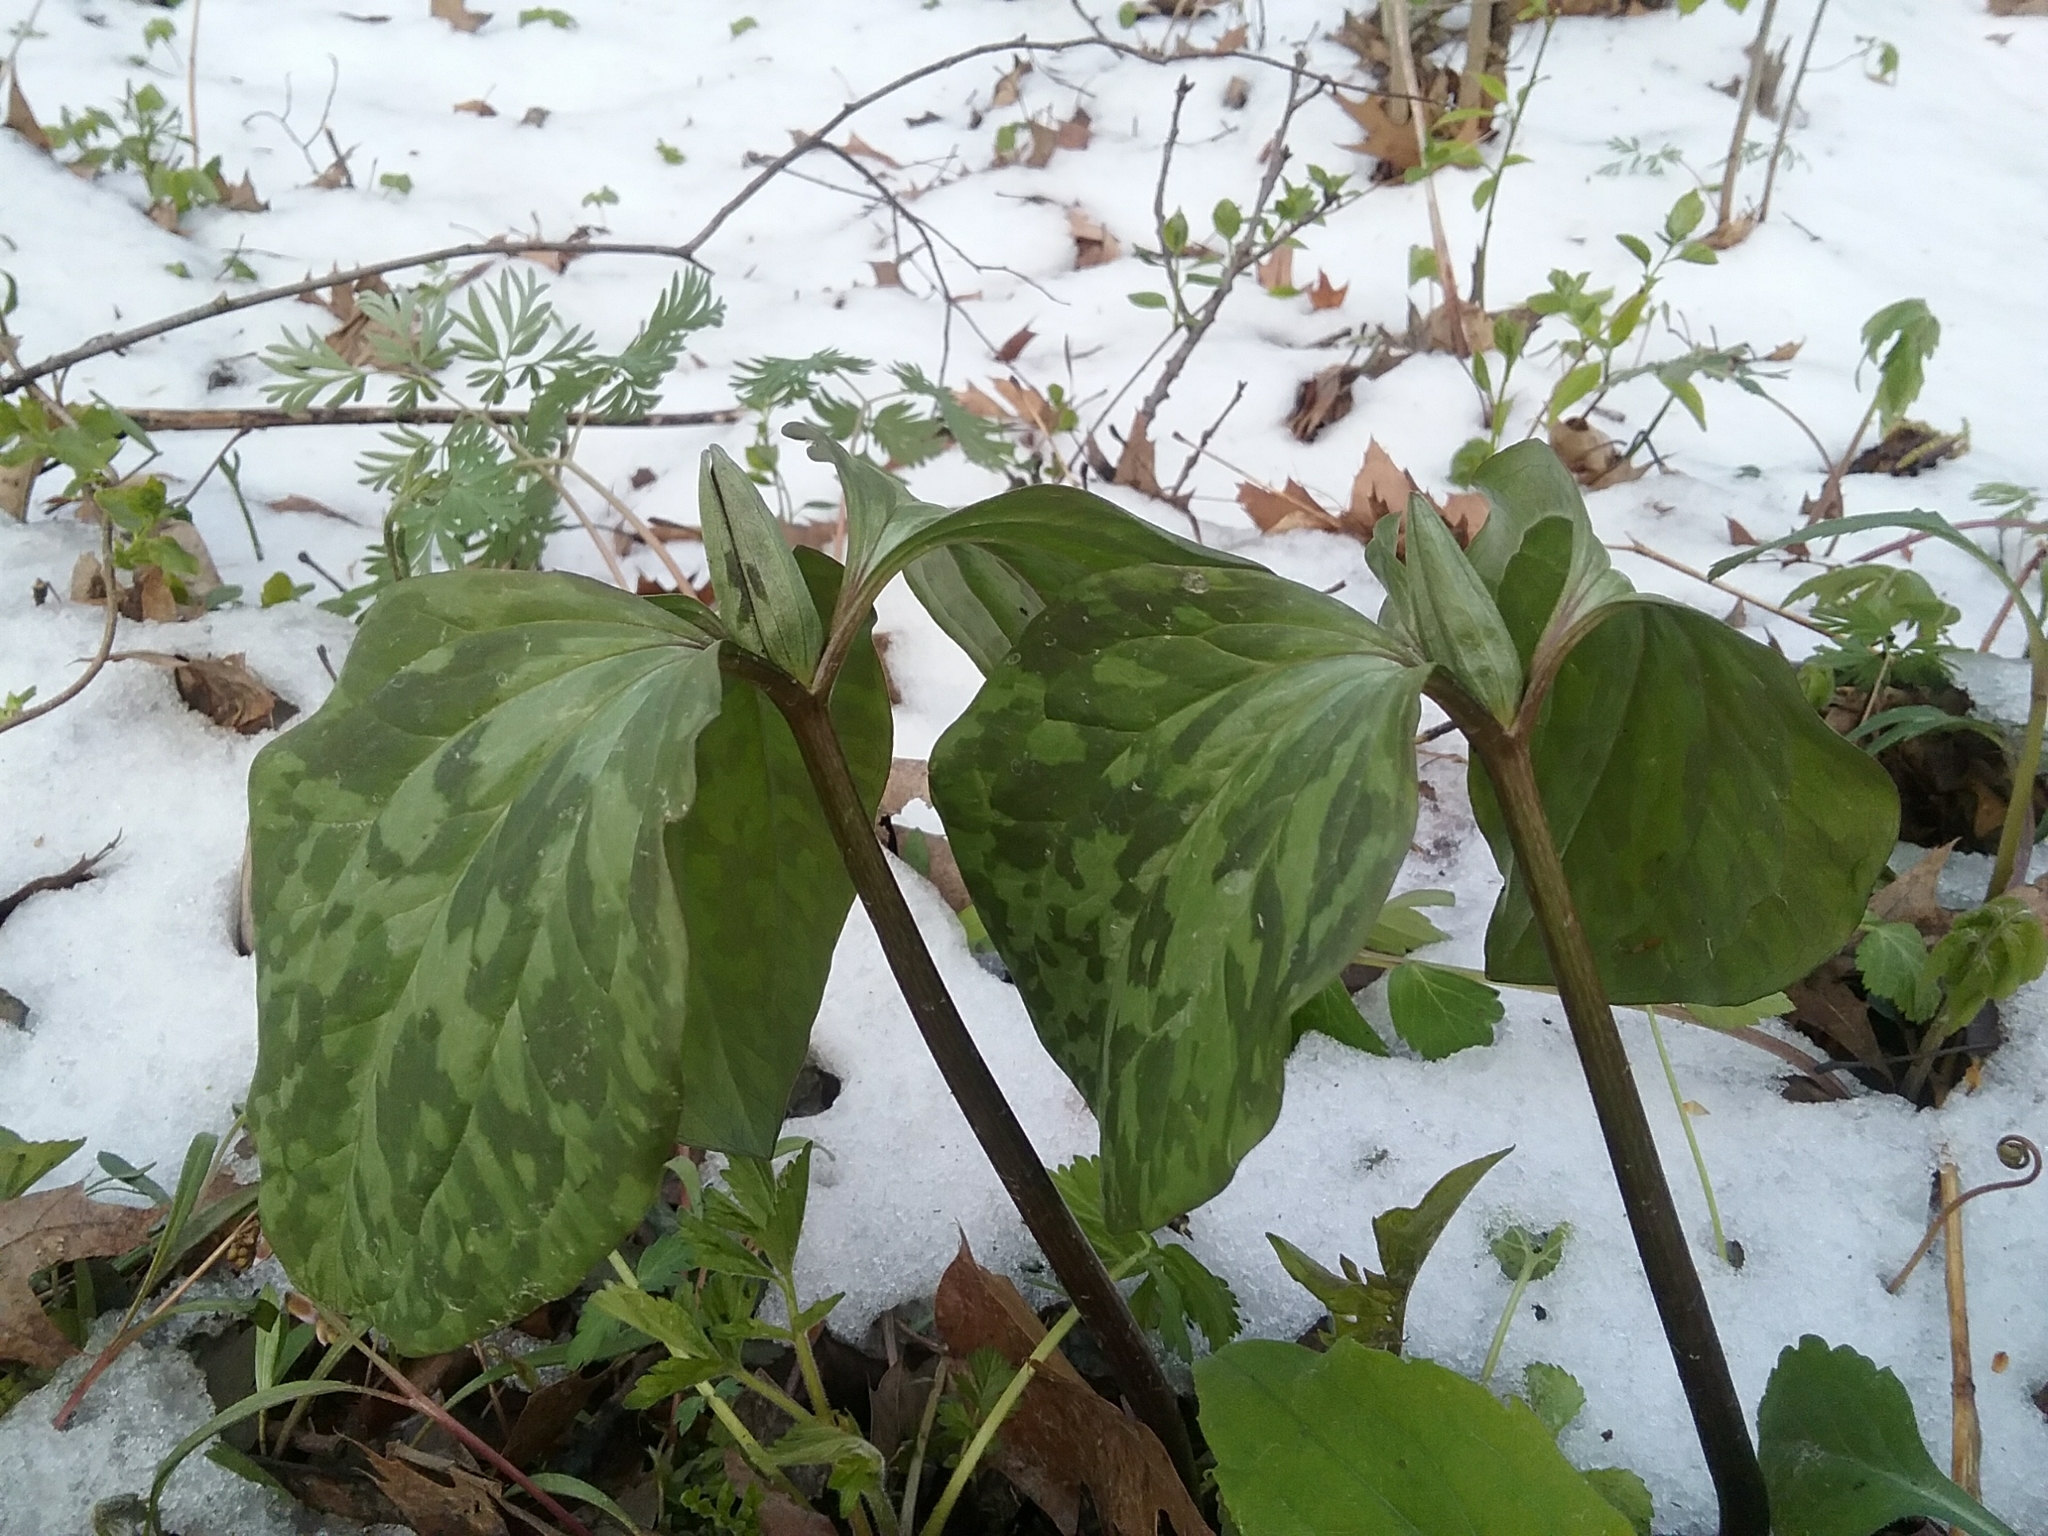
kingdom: Plantae
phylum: Tracheophyta
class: Liliopsida
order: Liliales
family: Melanthiaceae
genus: Trillium
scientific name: Trillium recurvatum
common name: Bloody butcher
